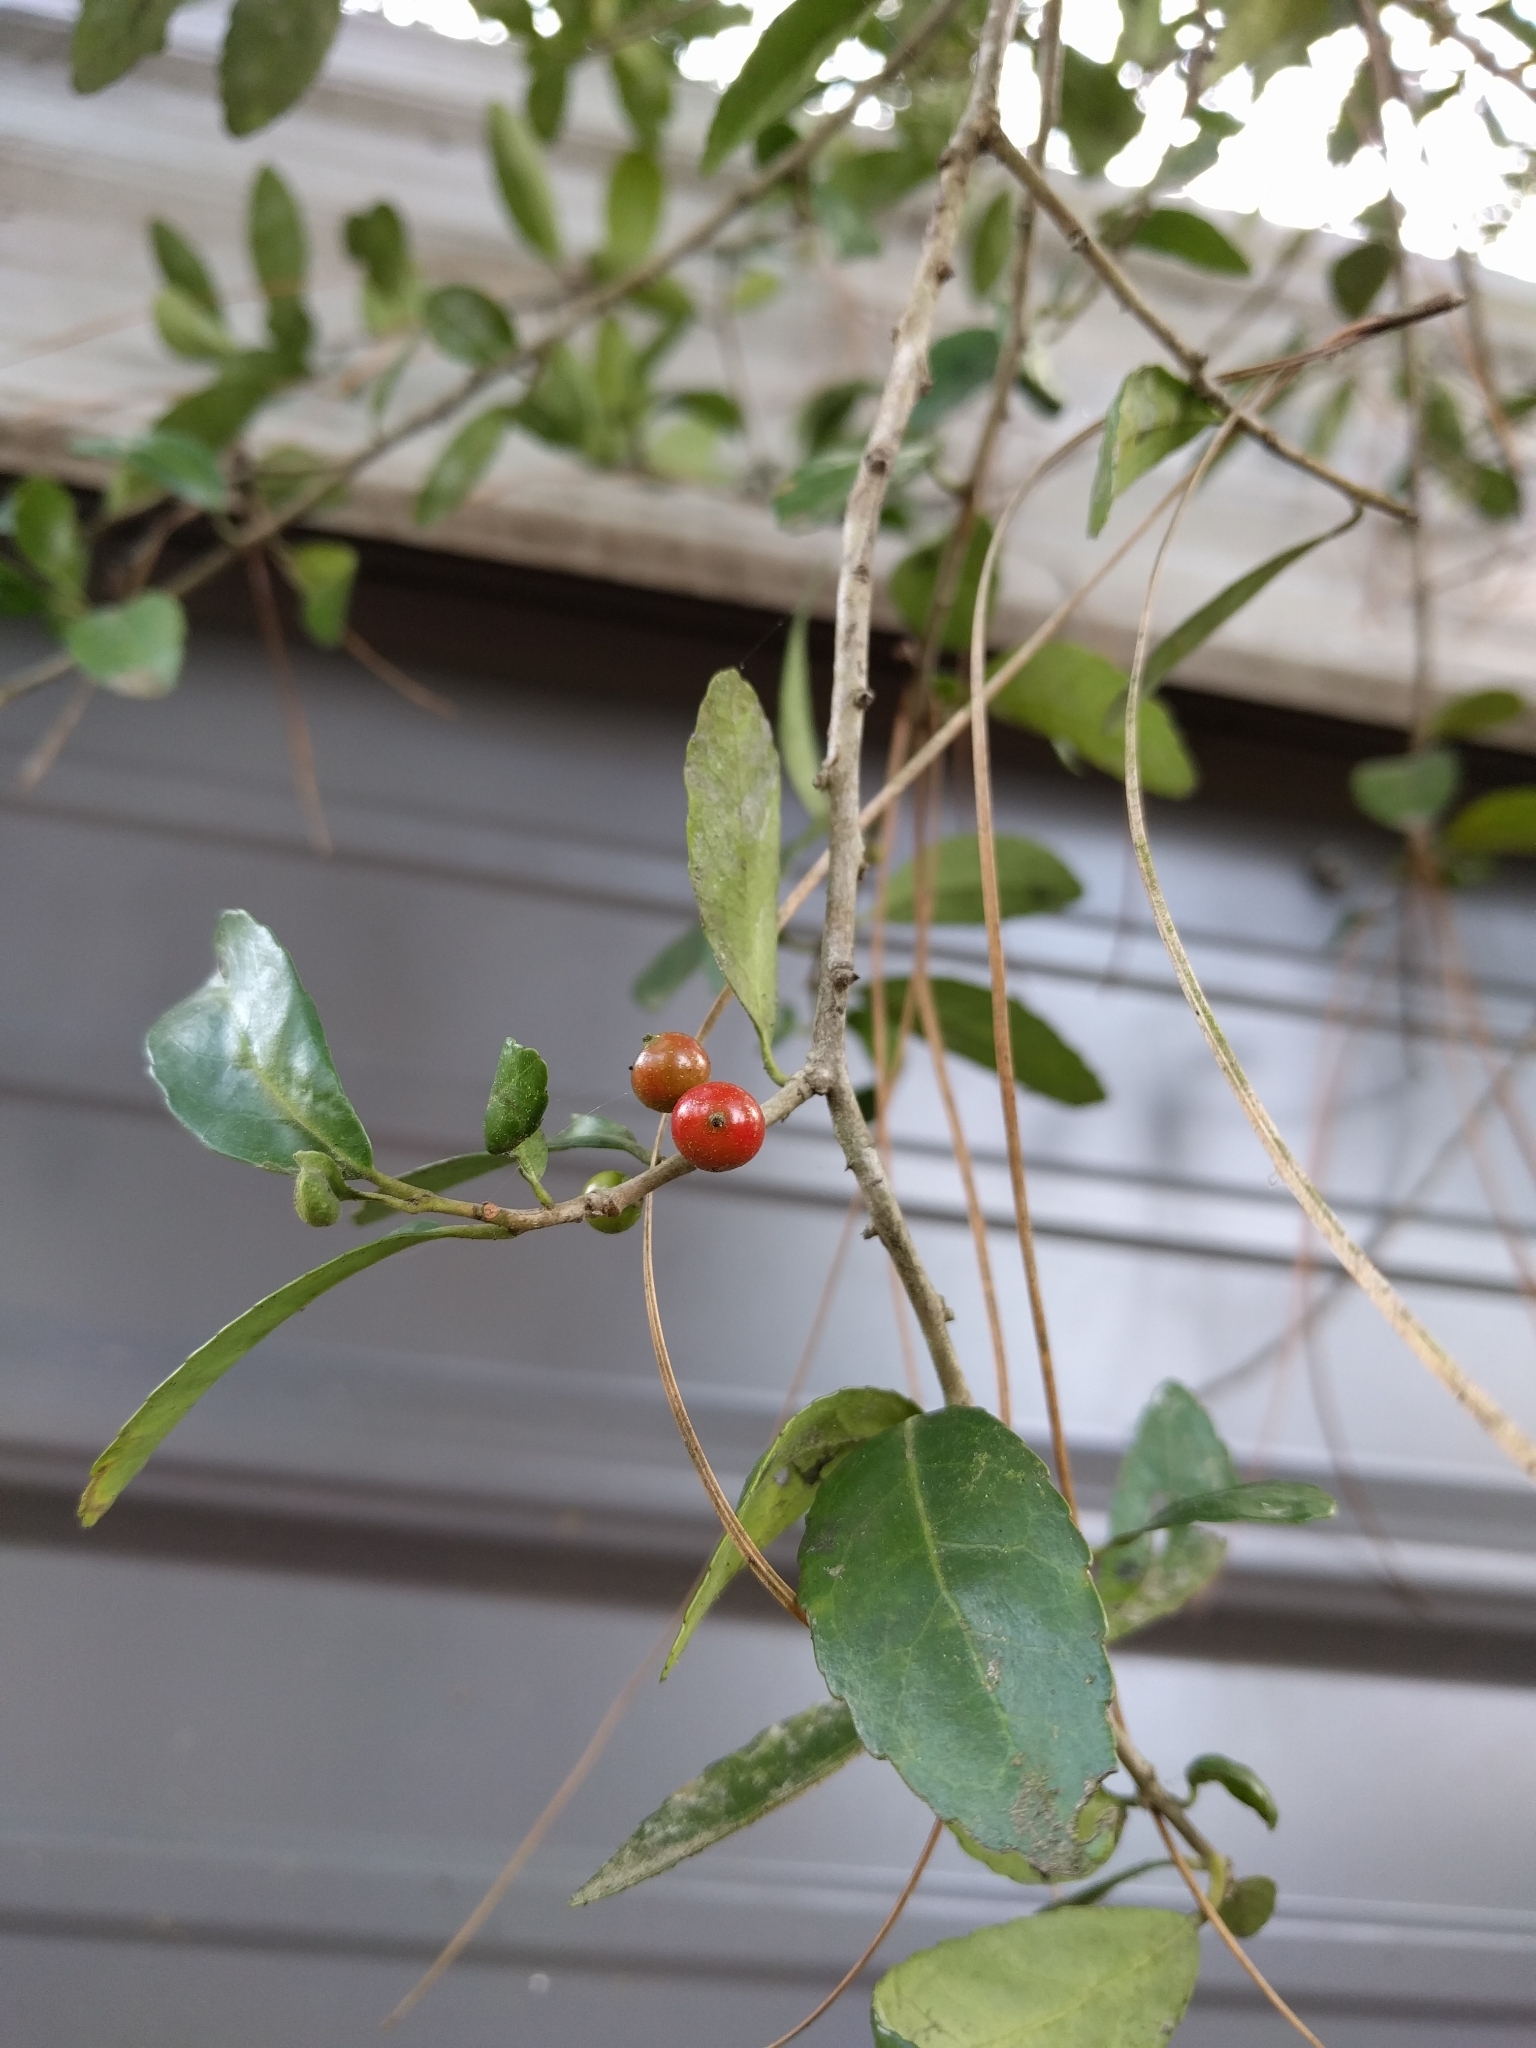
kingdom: Plantae
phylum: Tracheophyta
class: Magnoliopsida
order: Aquifoliales
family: Aquifoliaceae
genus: Ilex
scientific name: Ilex vomitoria
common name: Yaupon holly
